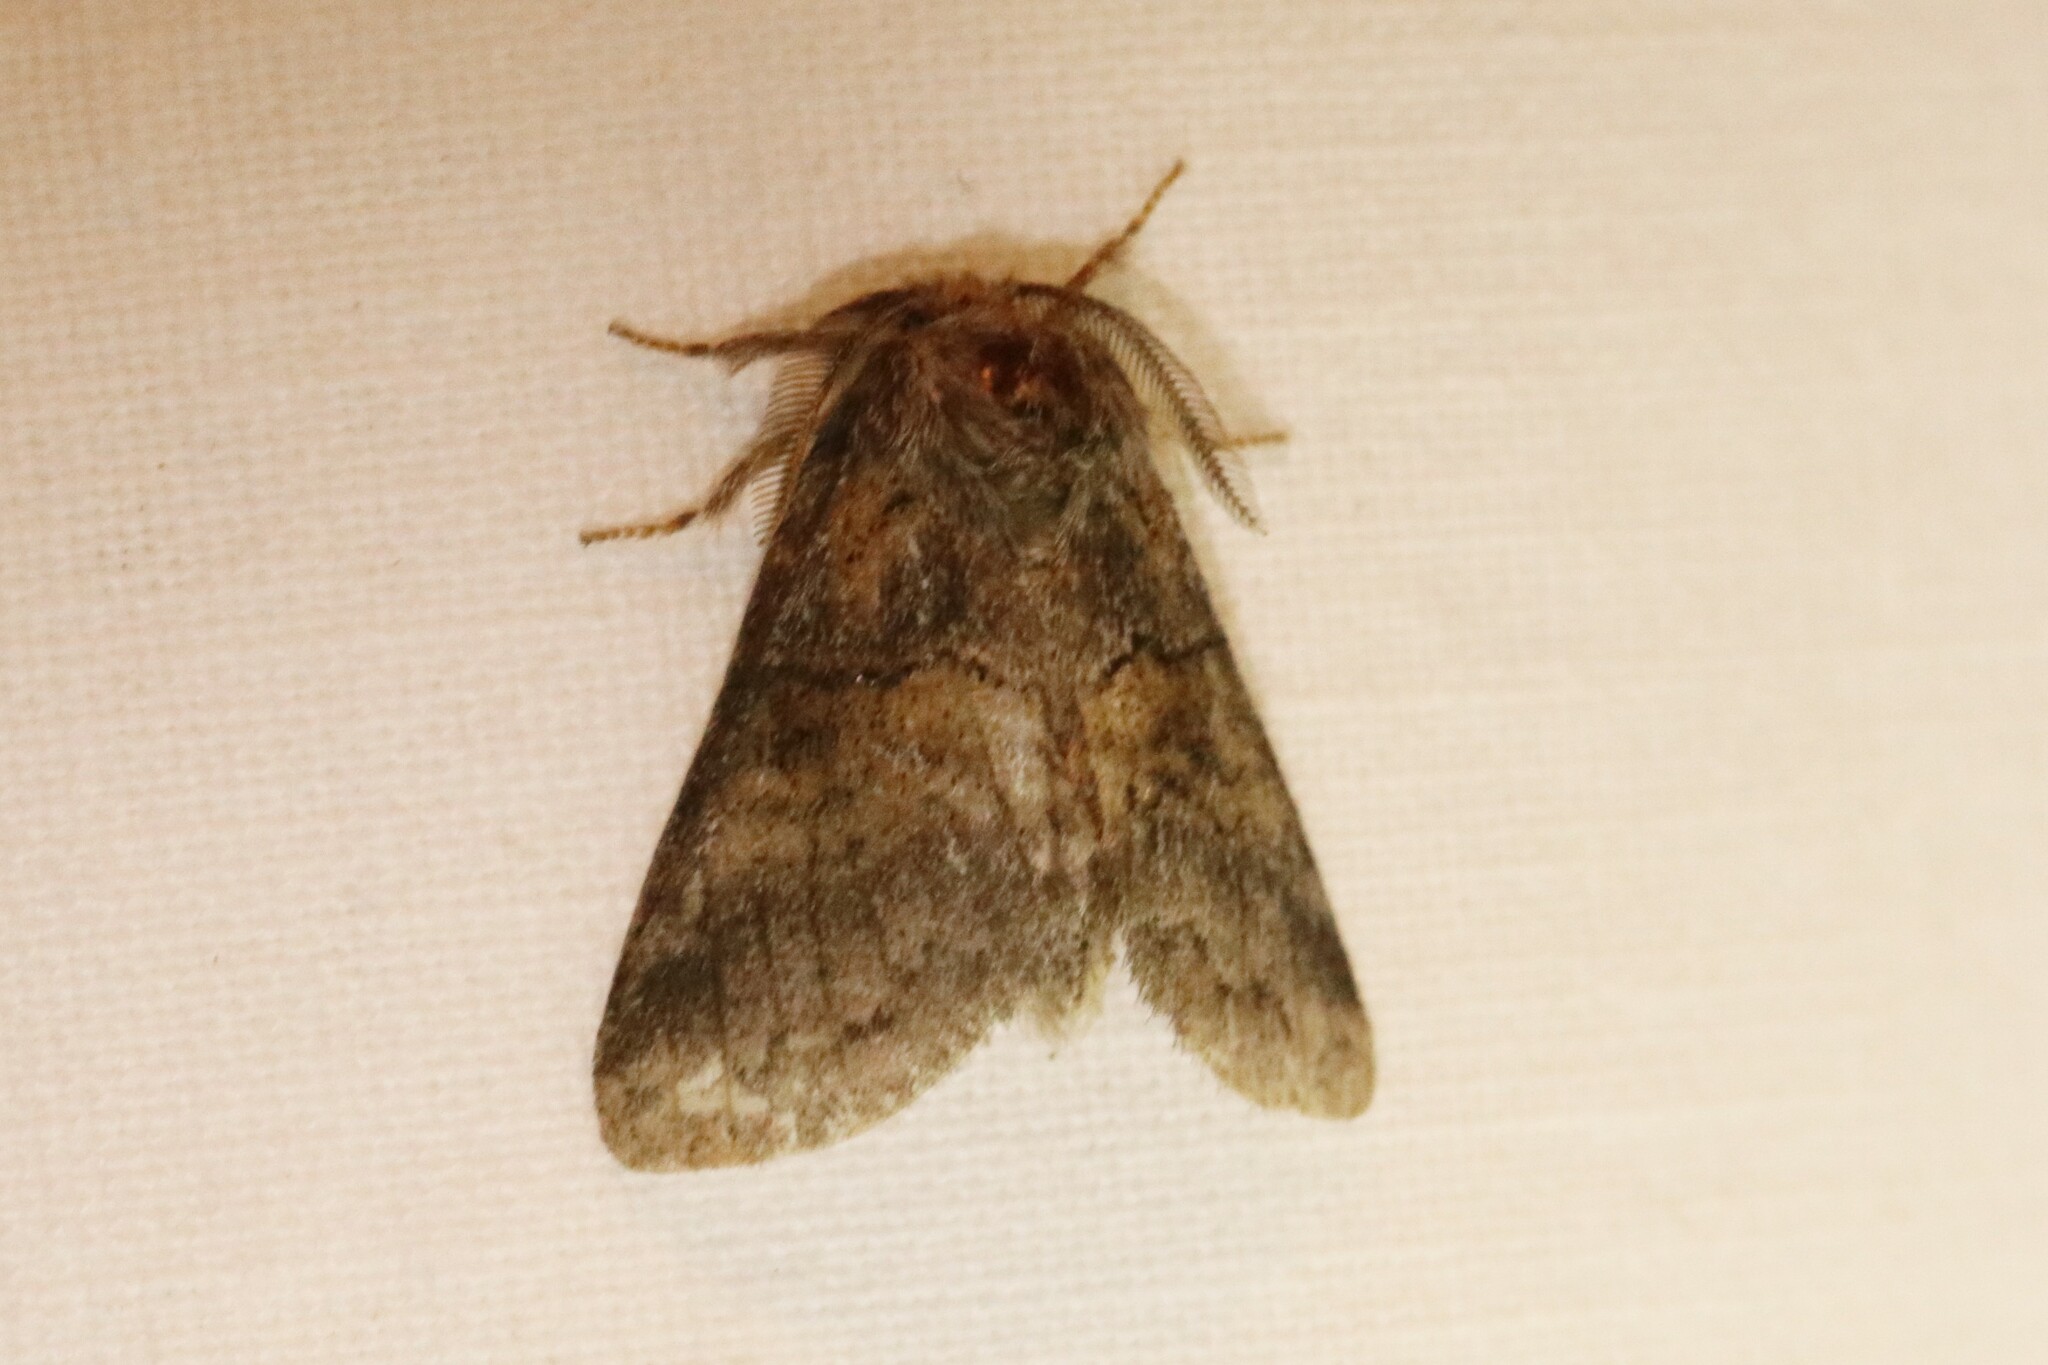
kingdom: Animalia
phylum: Arthropoda
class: Insecta
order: Lepidoptera
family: Notodontidae
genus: Gluphisia
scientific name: Gluphisia septentrionis
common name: Common gluphisia
